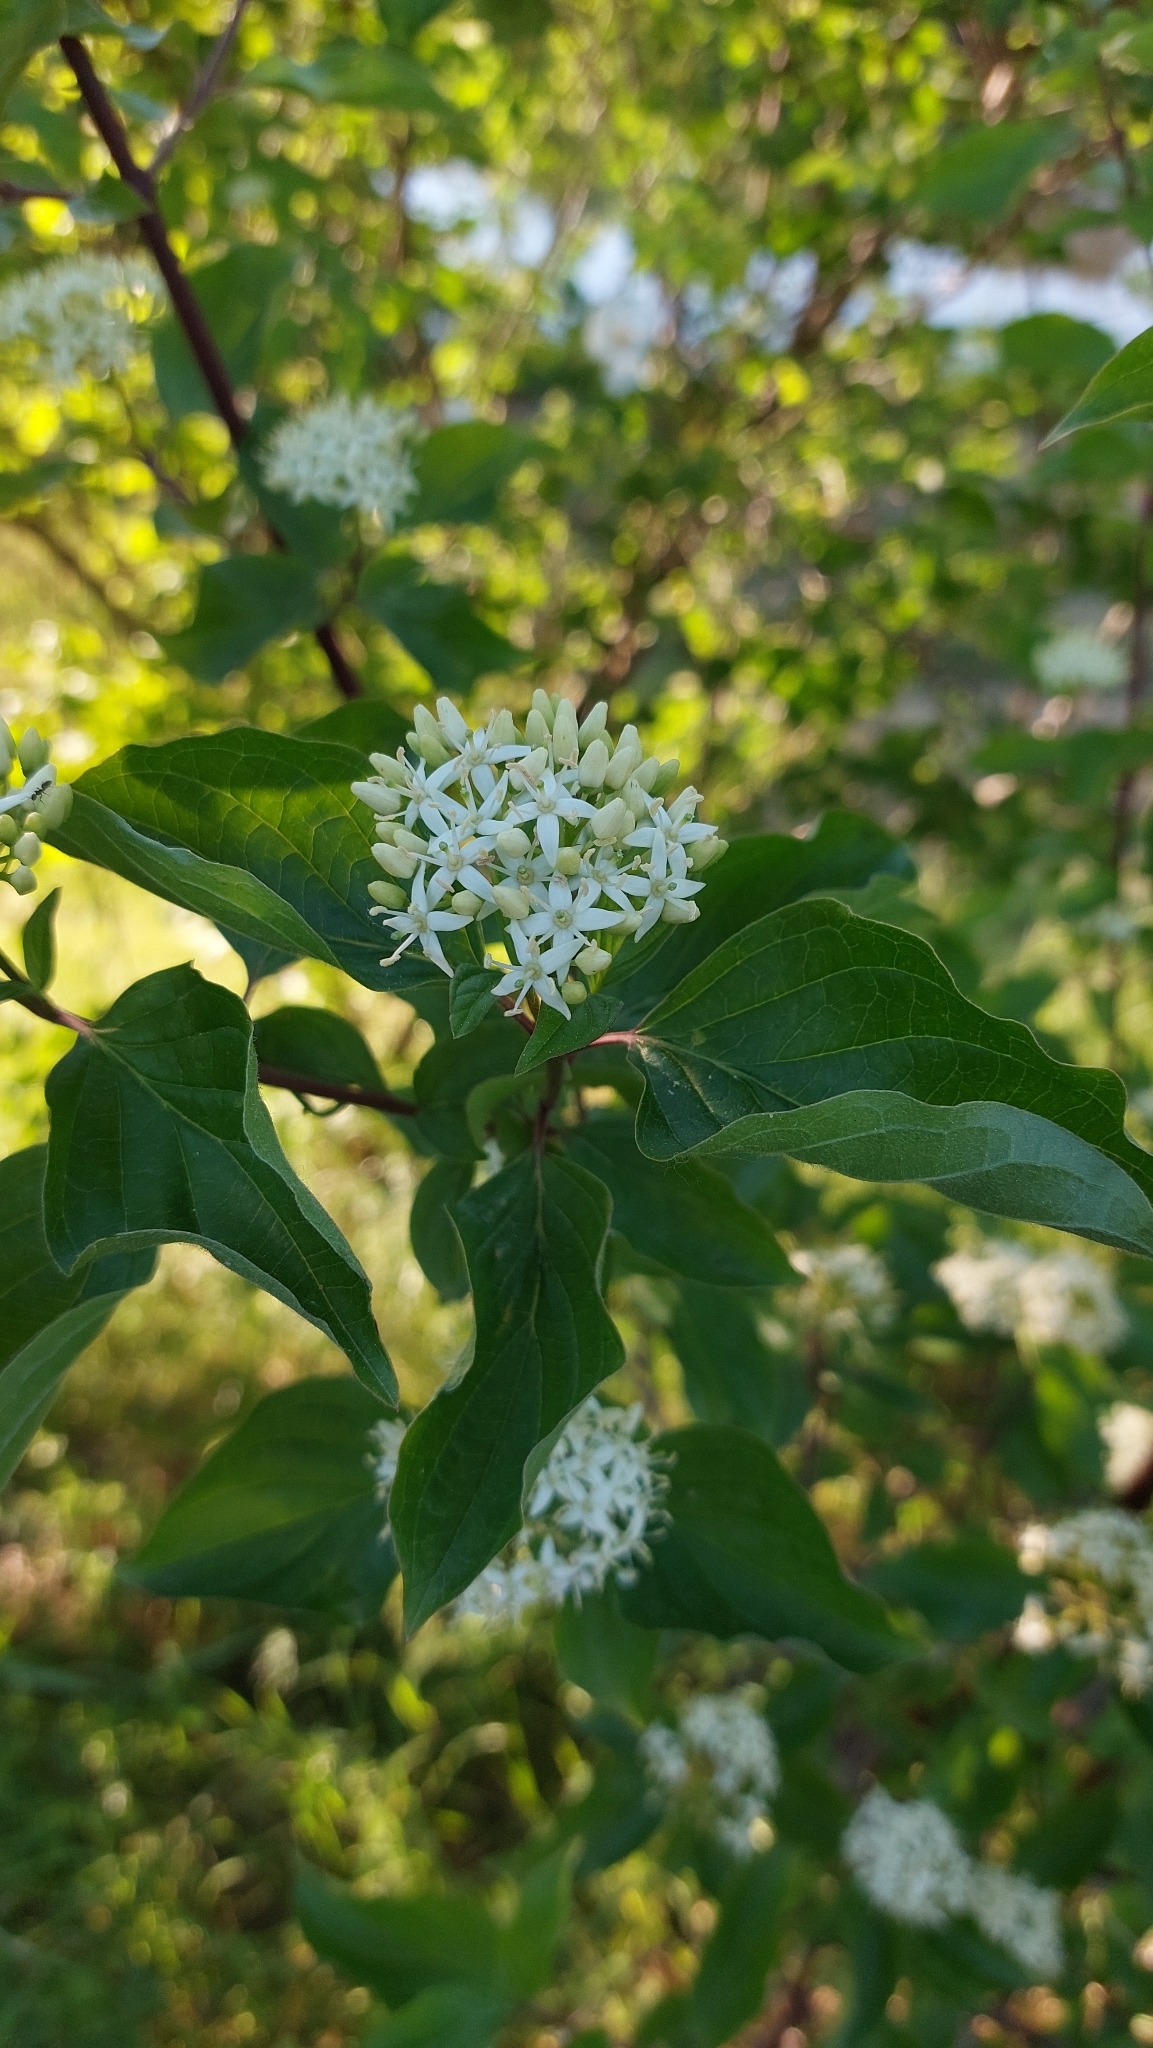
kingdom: Plantae
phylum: Tracheophyta
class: Magnoliopsida
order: Cornales
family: Cornaceae
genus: Cornus
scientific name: Cornus sanguinea
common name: Dogwood
